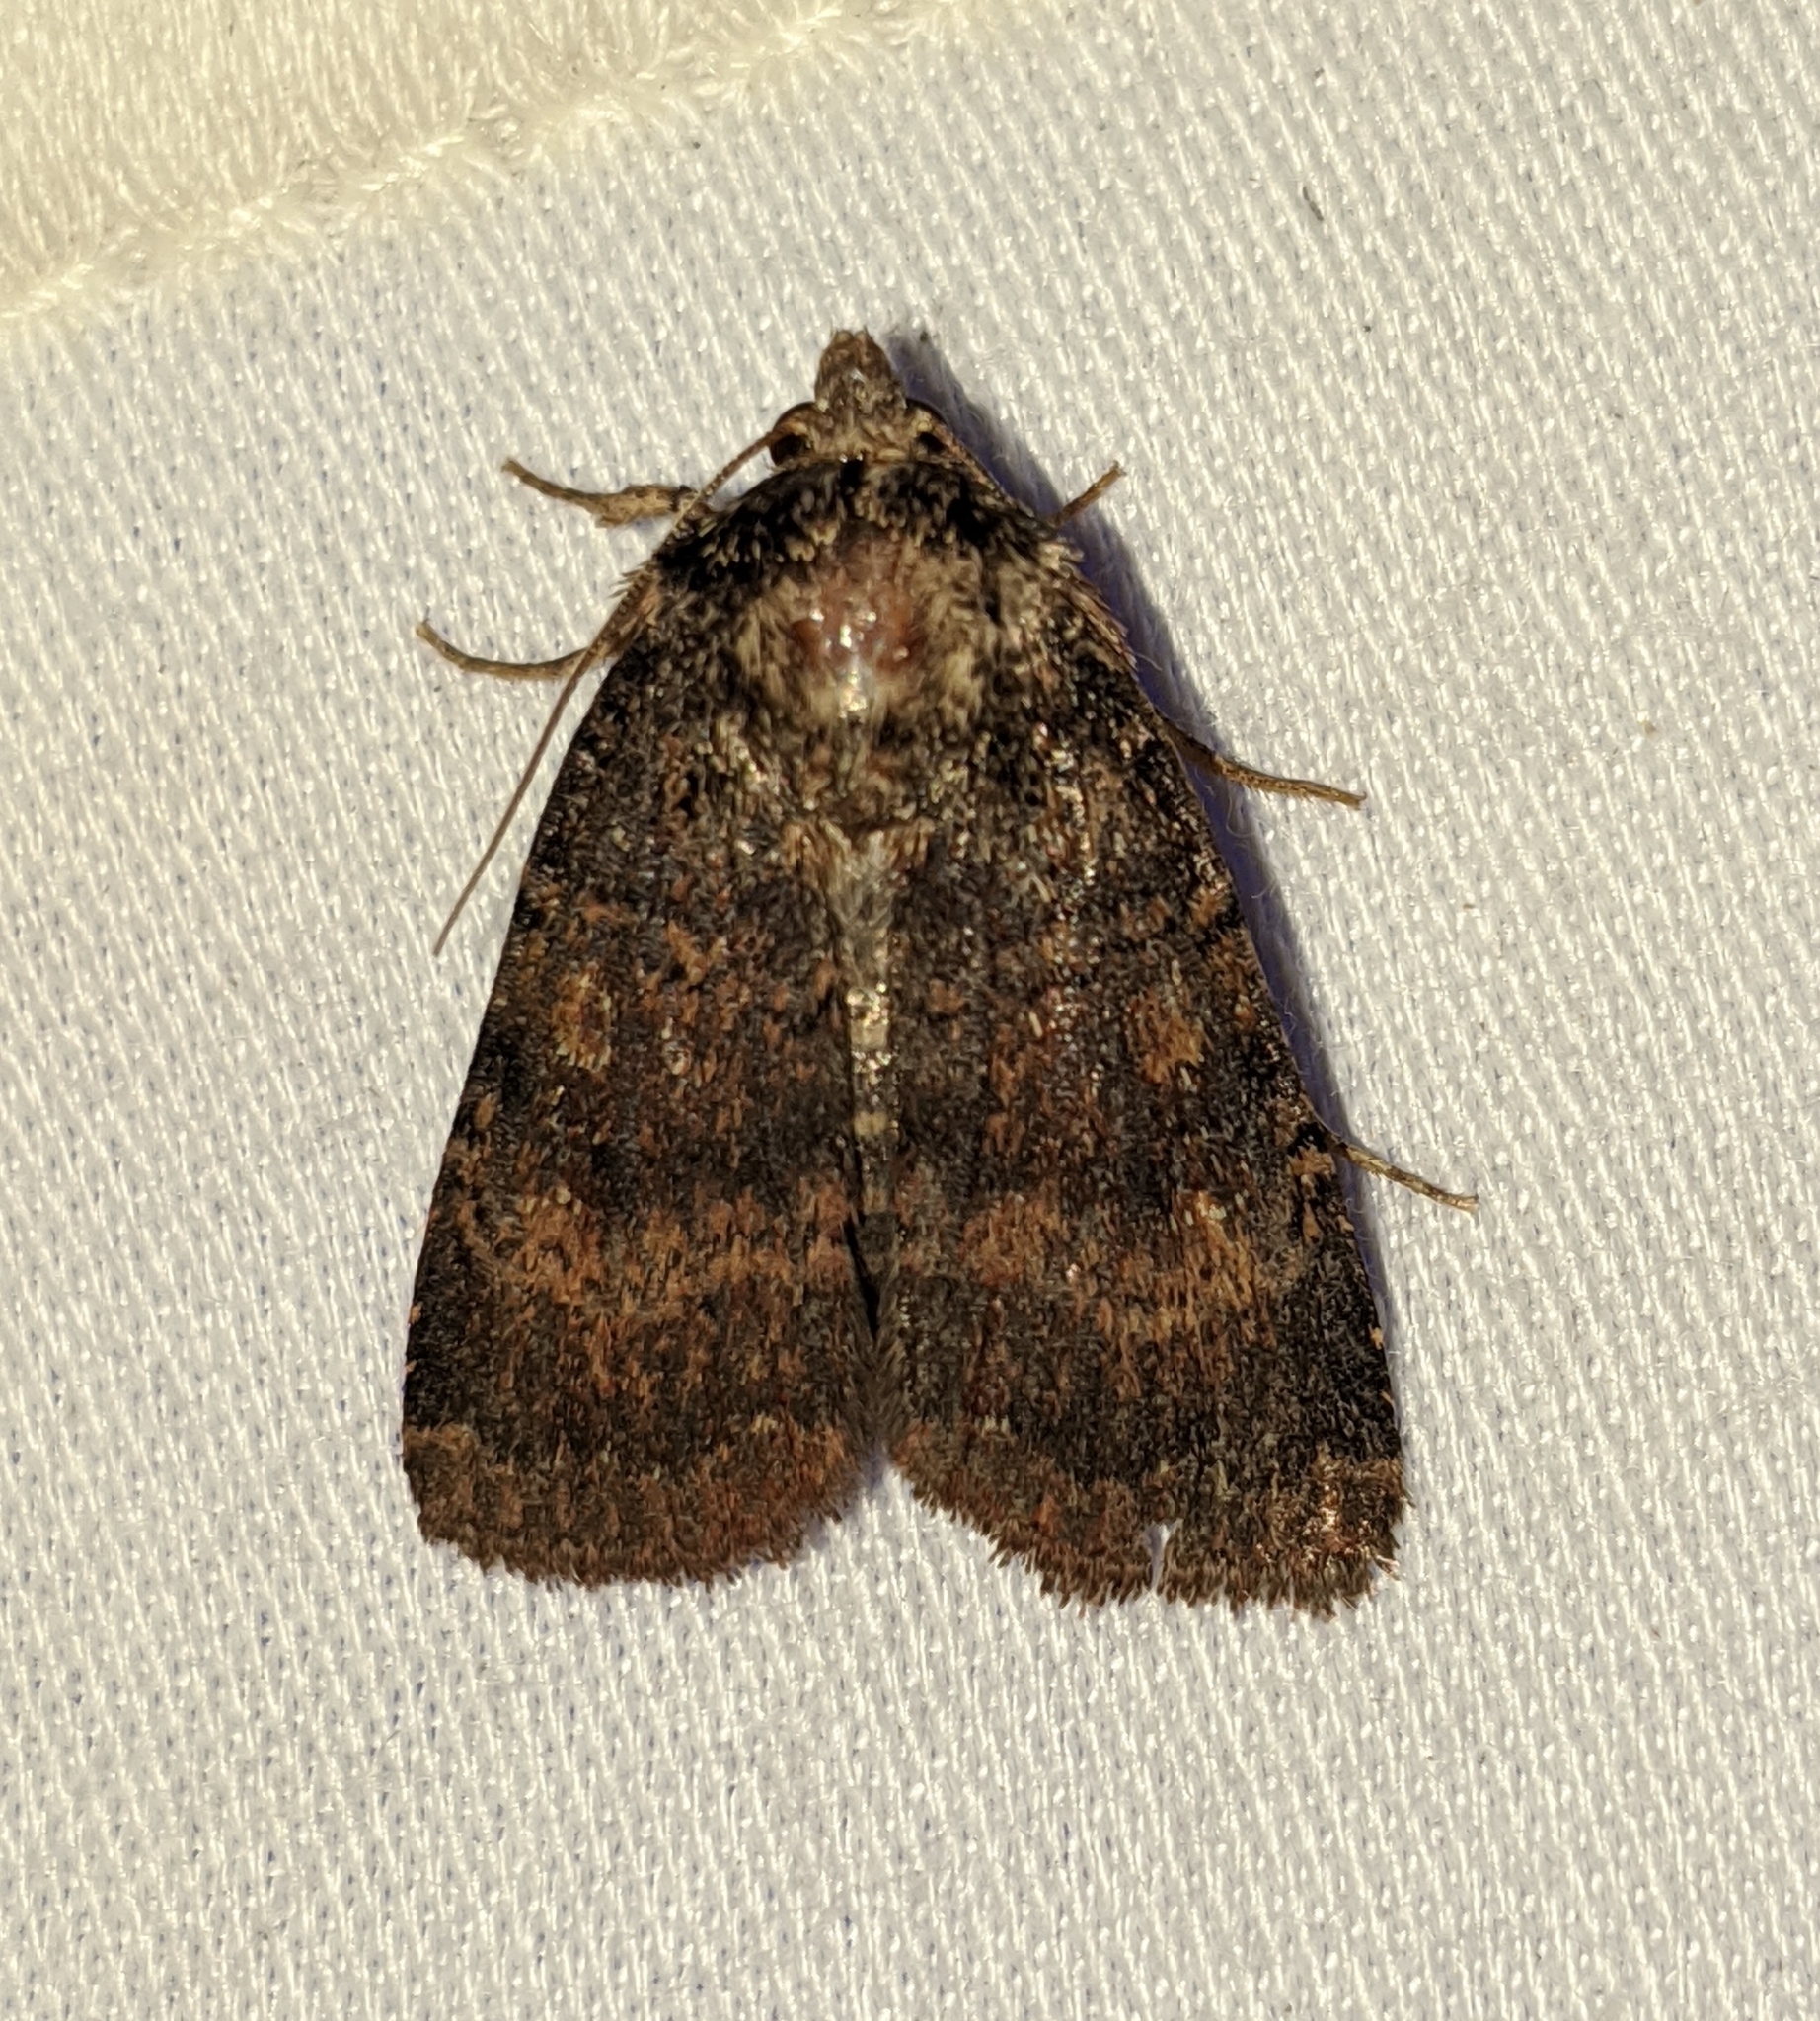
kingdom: Animalia
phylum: Arthropoda
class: Insecta
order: Lepidoptera
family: Noctuidae
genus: Abagrotis
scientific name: Abagrotis apposita
